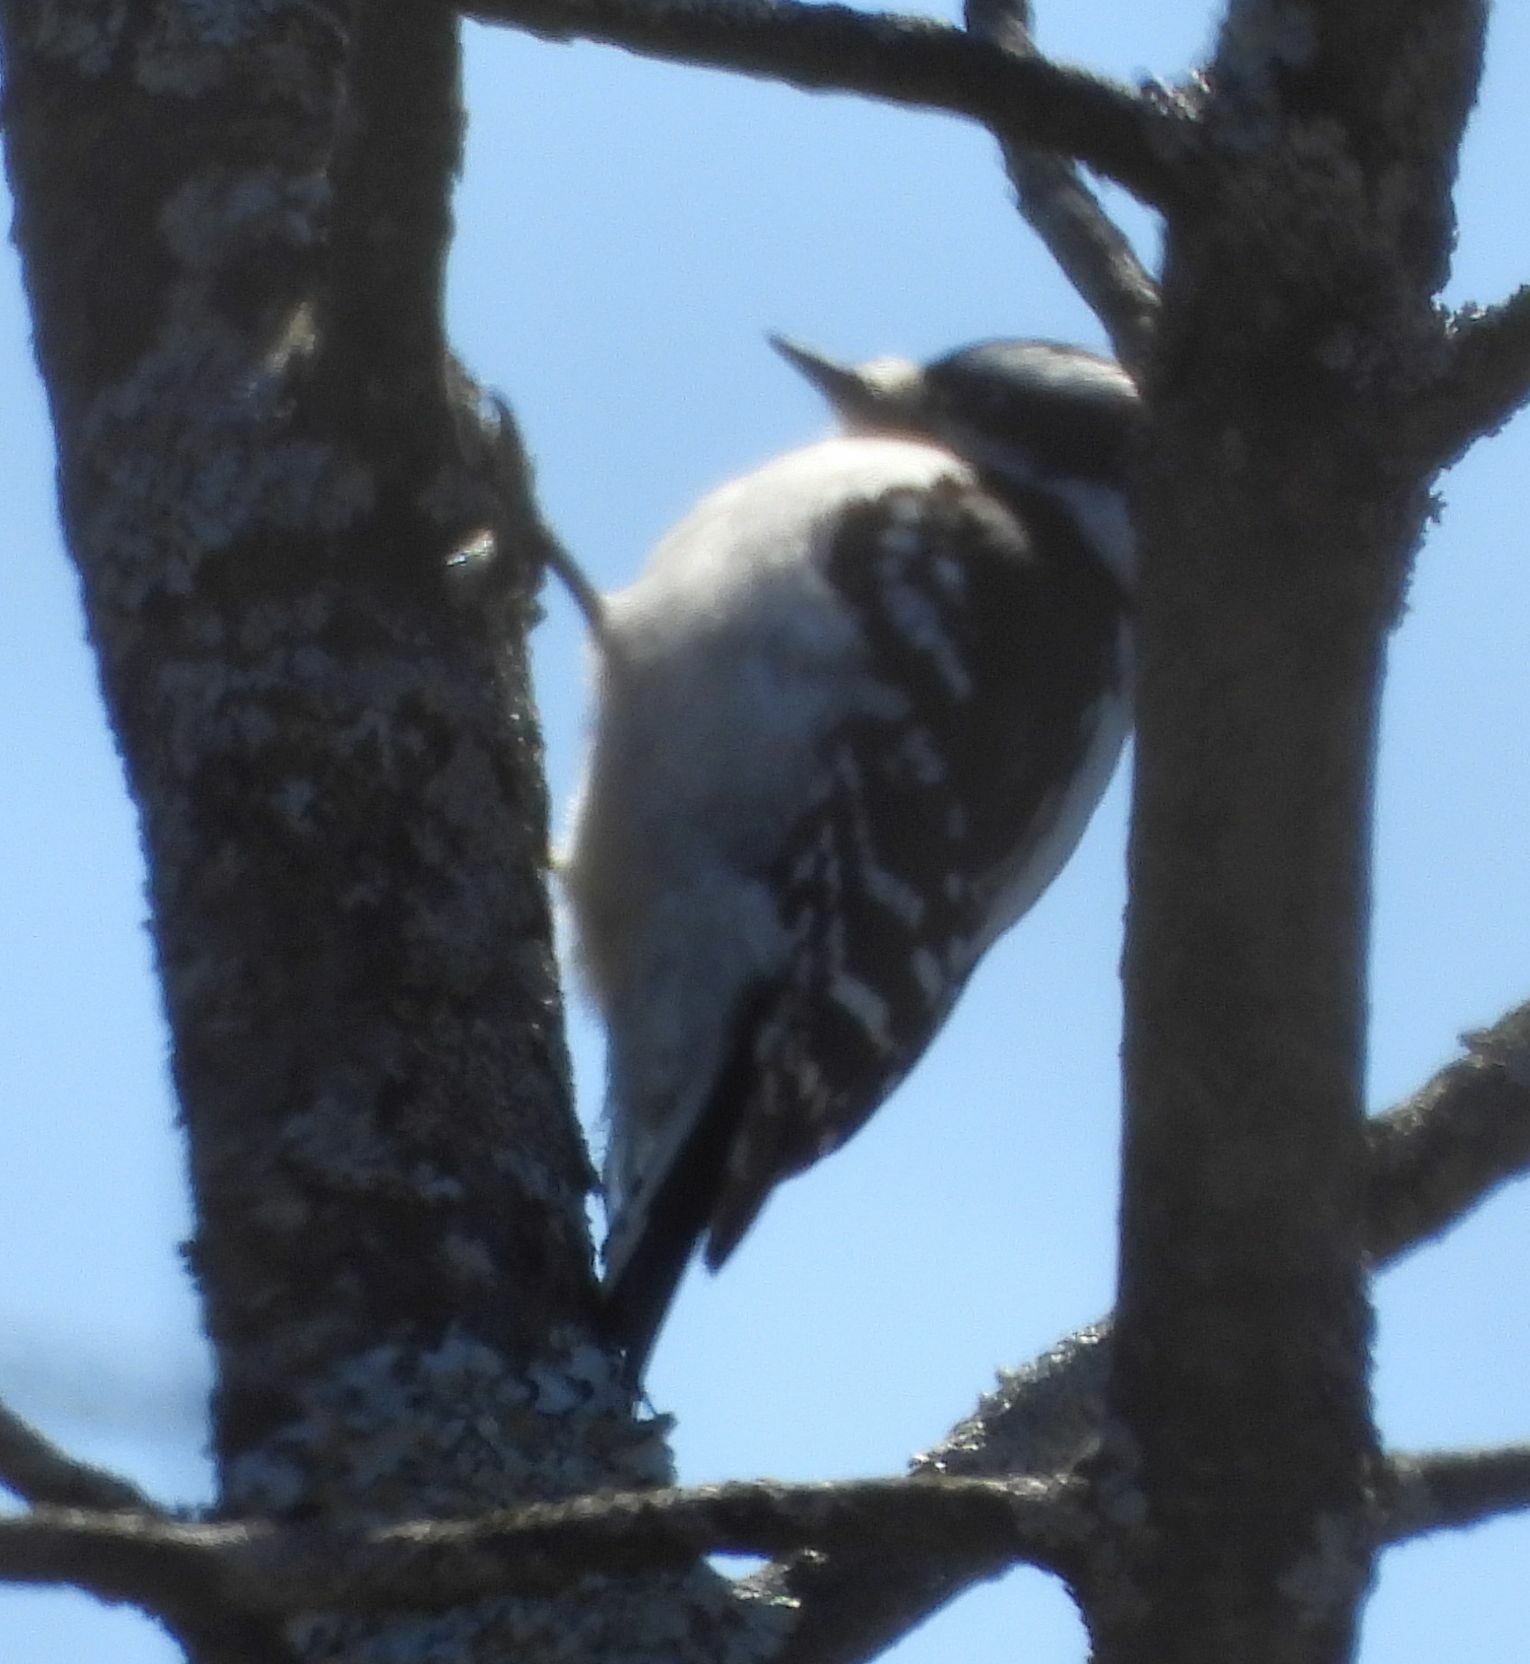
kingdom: Animalia
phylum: Chordata
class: Aves
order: Piciformes
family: Picidae
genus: Dryobates
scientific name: Dryobates pubescens
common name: Downy woodpecker
